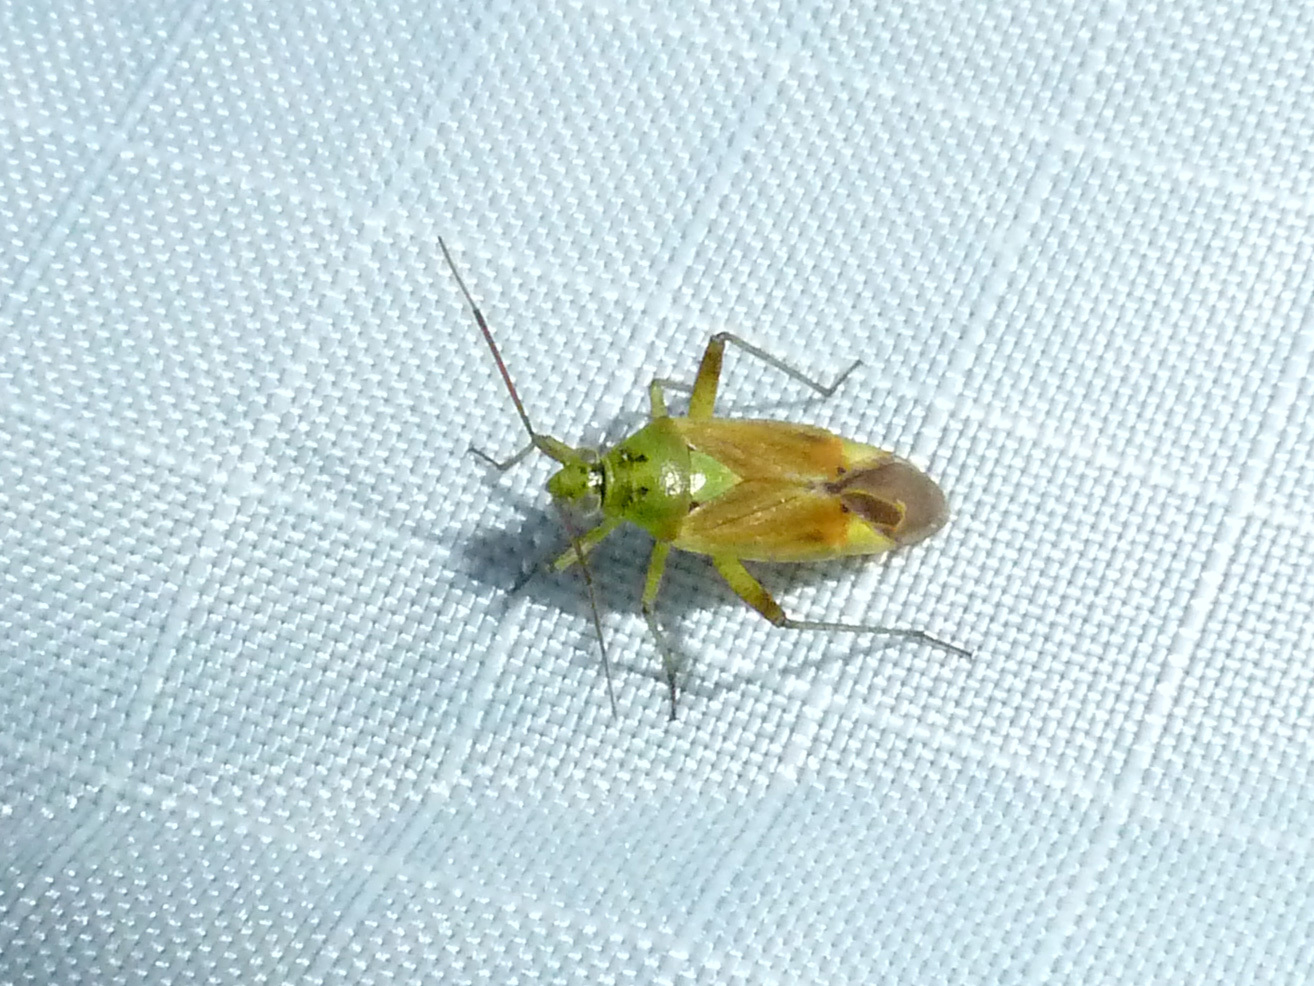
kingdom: Animalia
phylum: Arthropoda
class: Insecta
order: Hemiptera
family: Miridae
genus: Closterotomus
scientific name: Closterotomus norvegicus
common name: Plant bug
